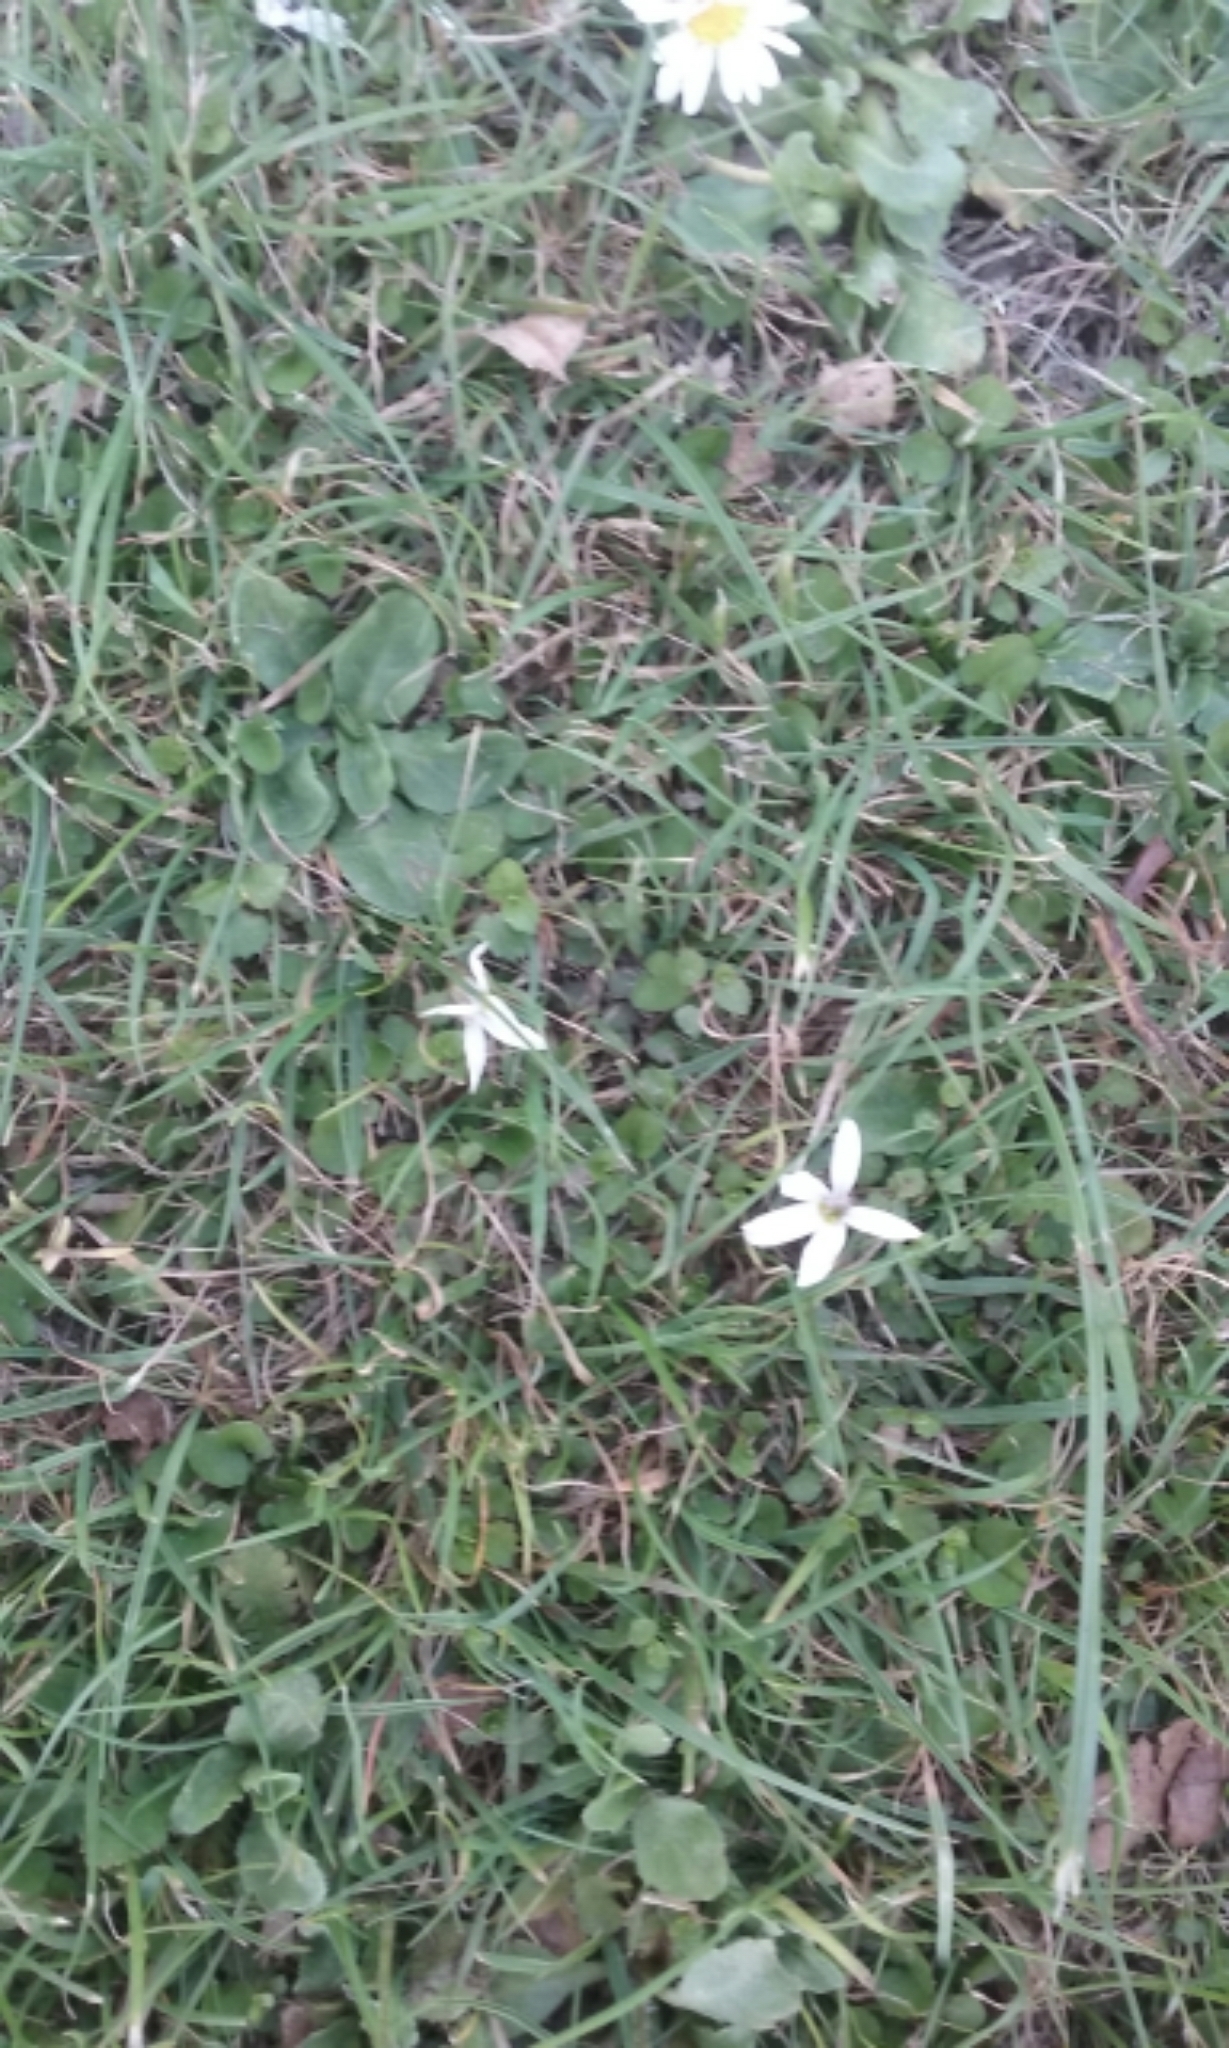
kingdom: Plantae
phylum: Tracheophyta
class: Magnoliopsida
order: Asterales
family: Campanulaceae
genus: Lobelia
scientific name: Lobelia angulata
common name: Lawn lobelia
